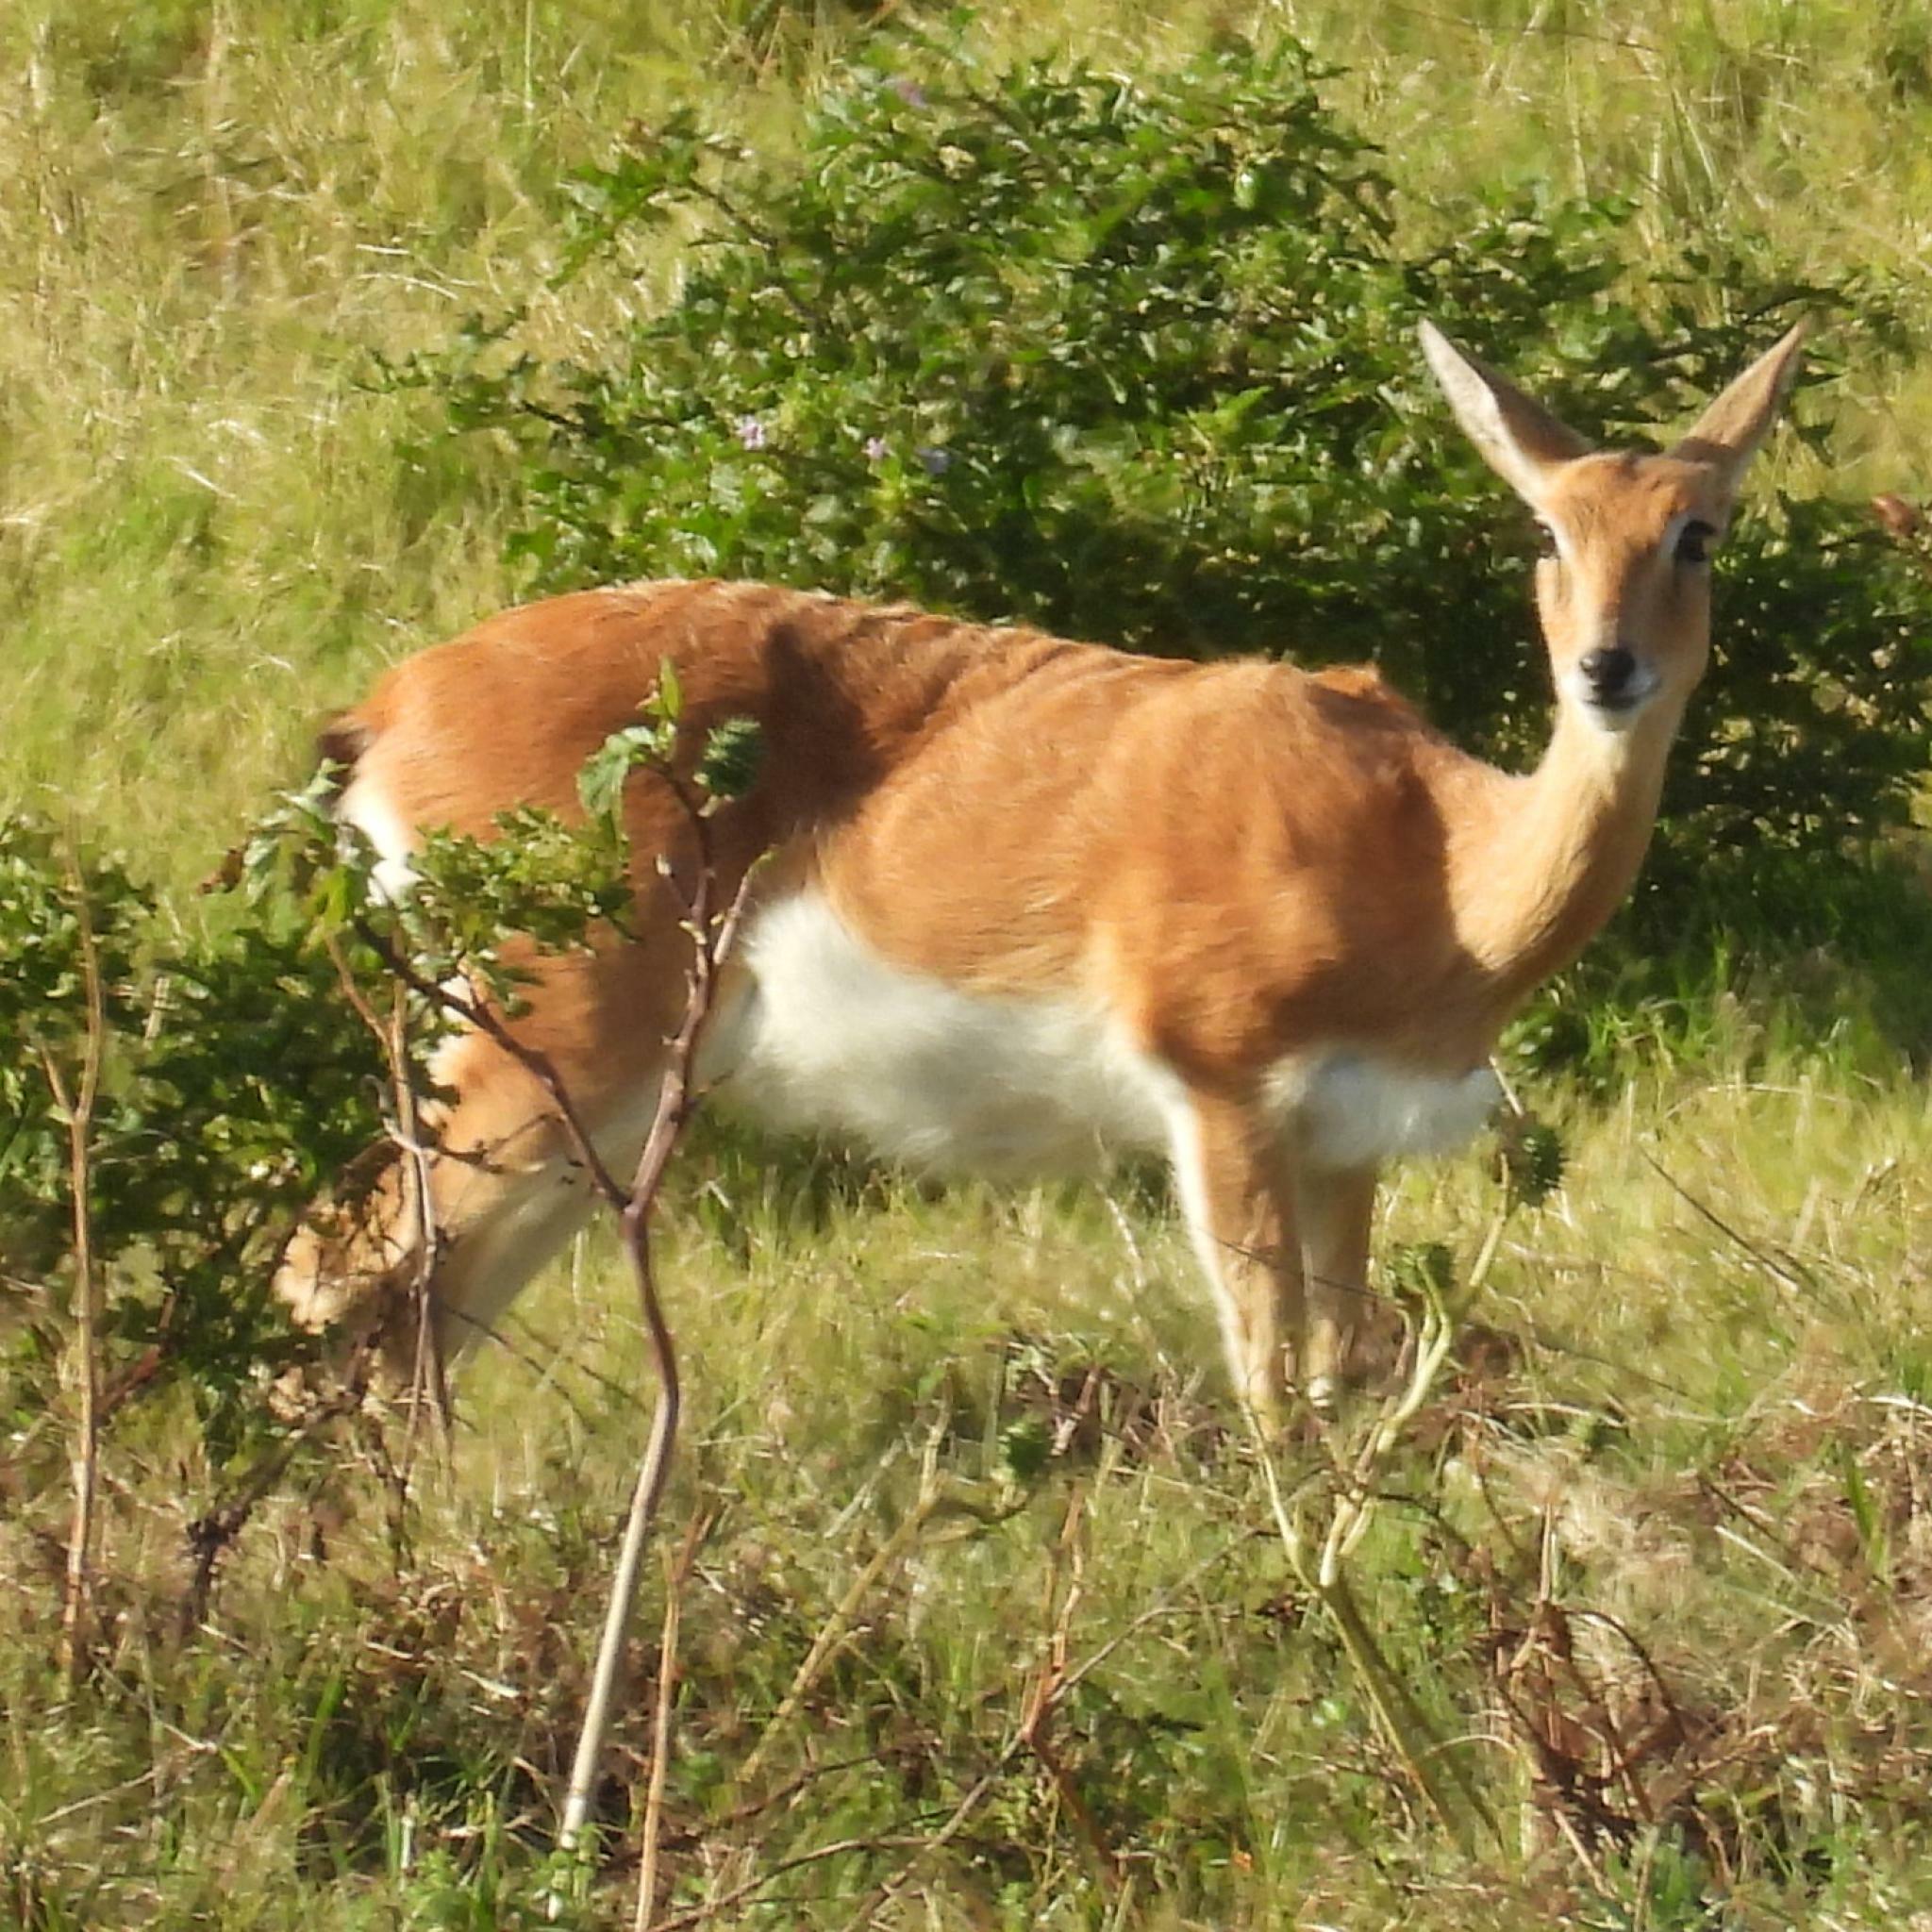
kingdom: Animalia
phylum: Chordata
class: Mammalia
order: Artiodactyla
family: Bovidae
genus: Ourebia
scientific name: Ourebia ourebi
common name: Oribi
